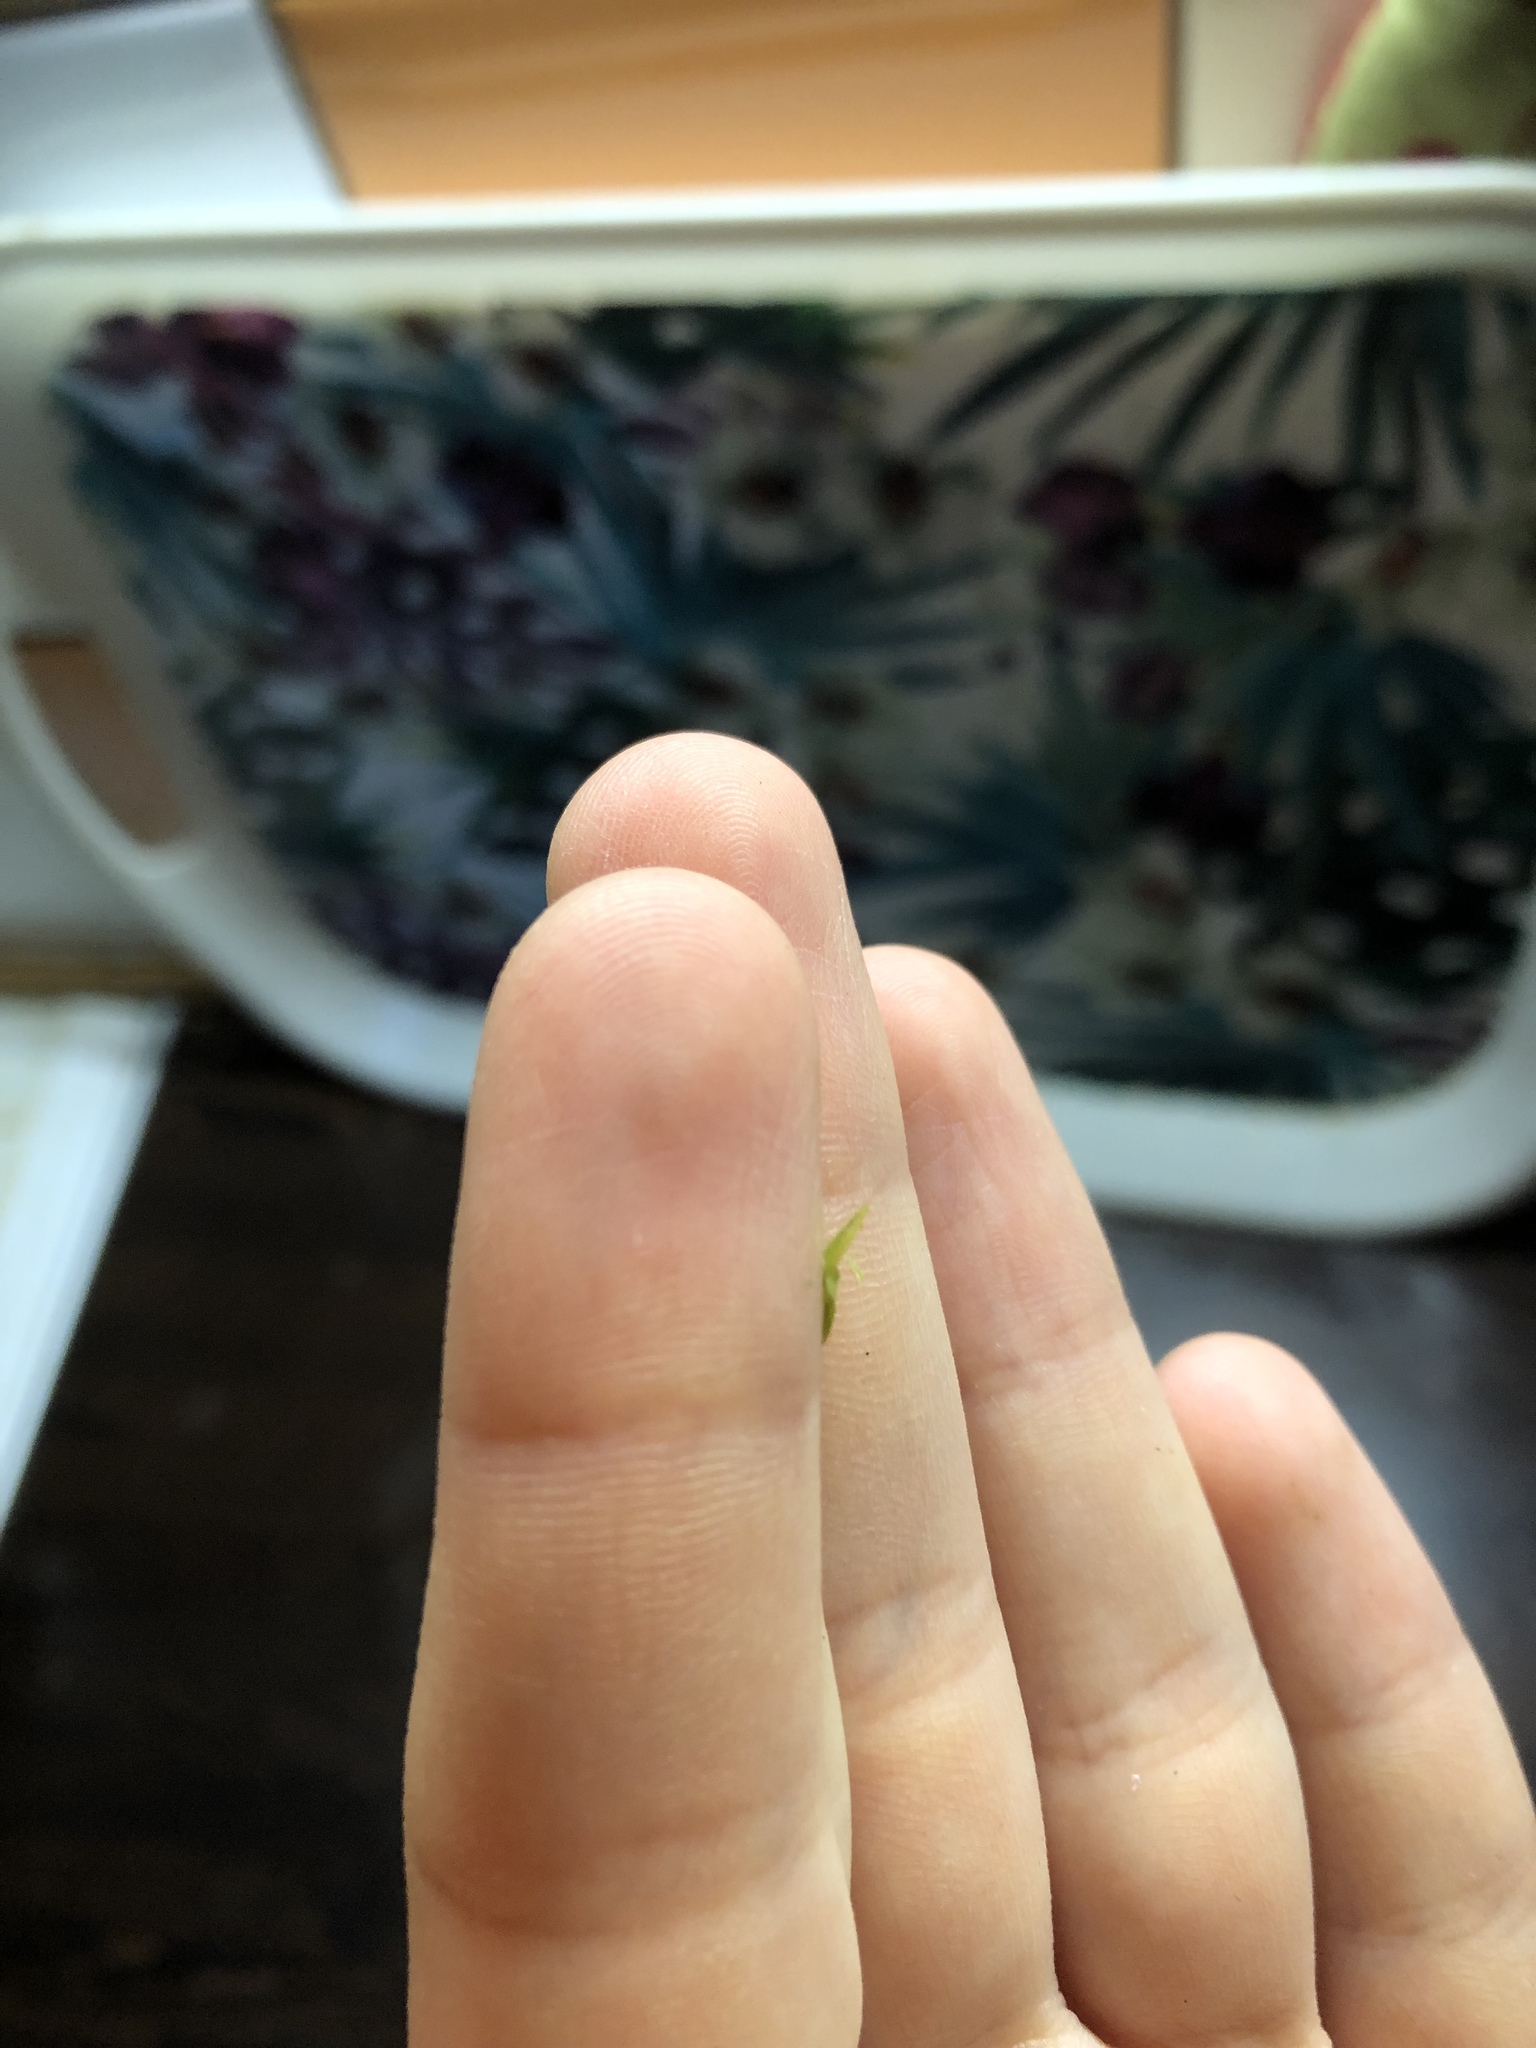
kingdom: Plantae
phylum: Tracheophyta
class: Liliopsida
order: Alismatales
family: Araceae
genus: Lemna
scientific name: Lemna minor
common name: Common duckweed
